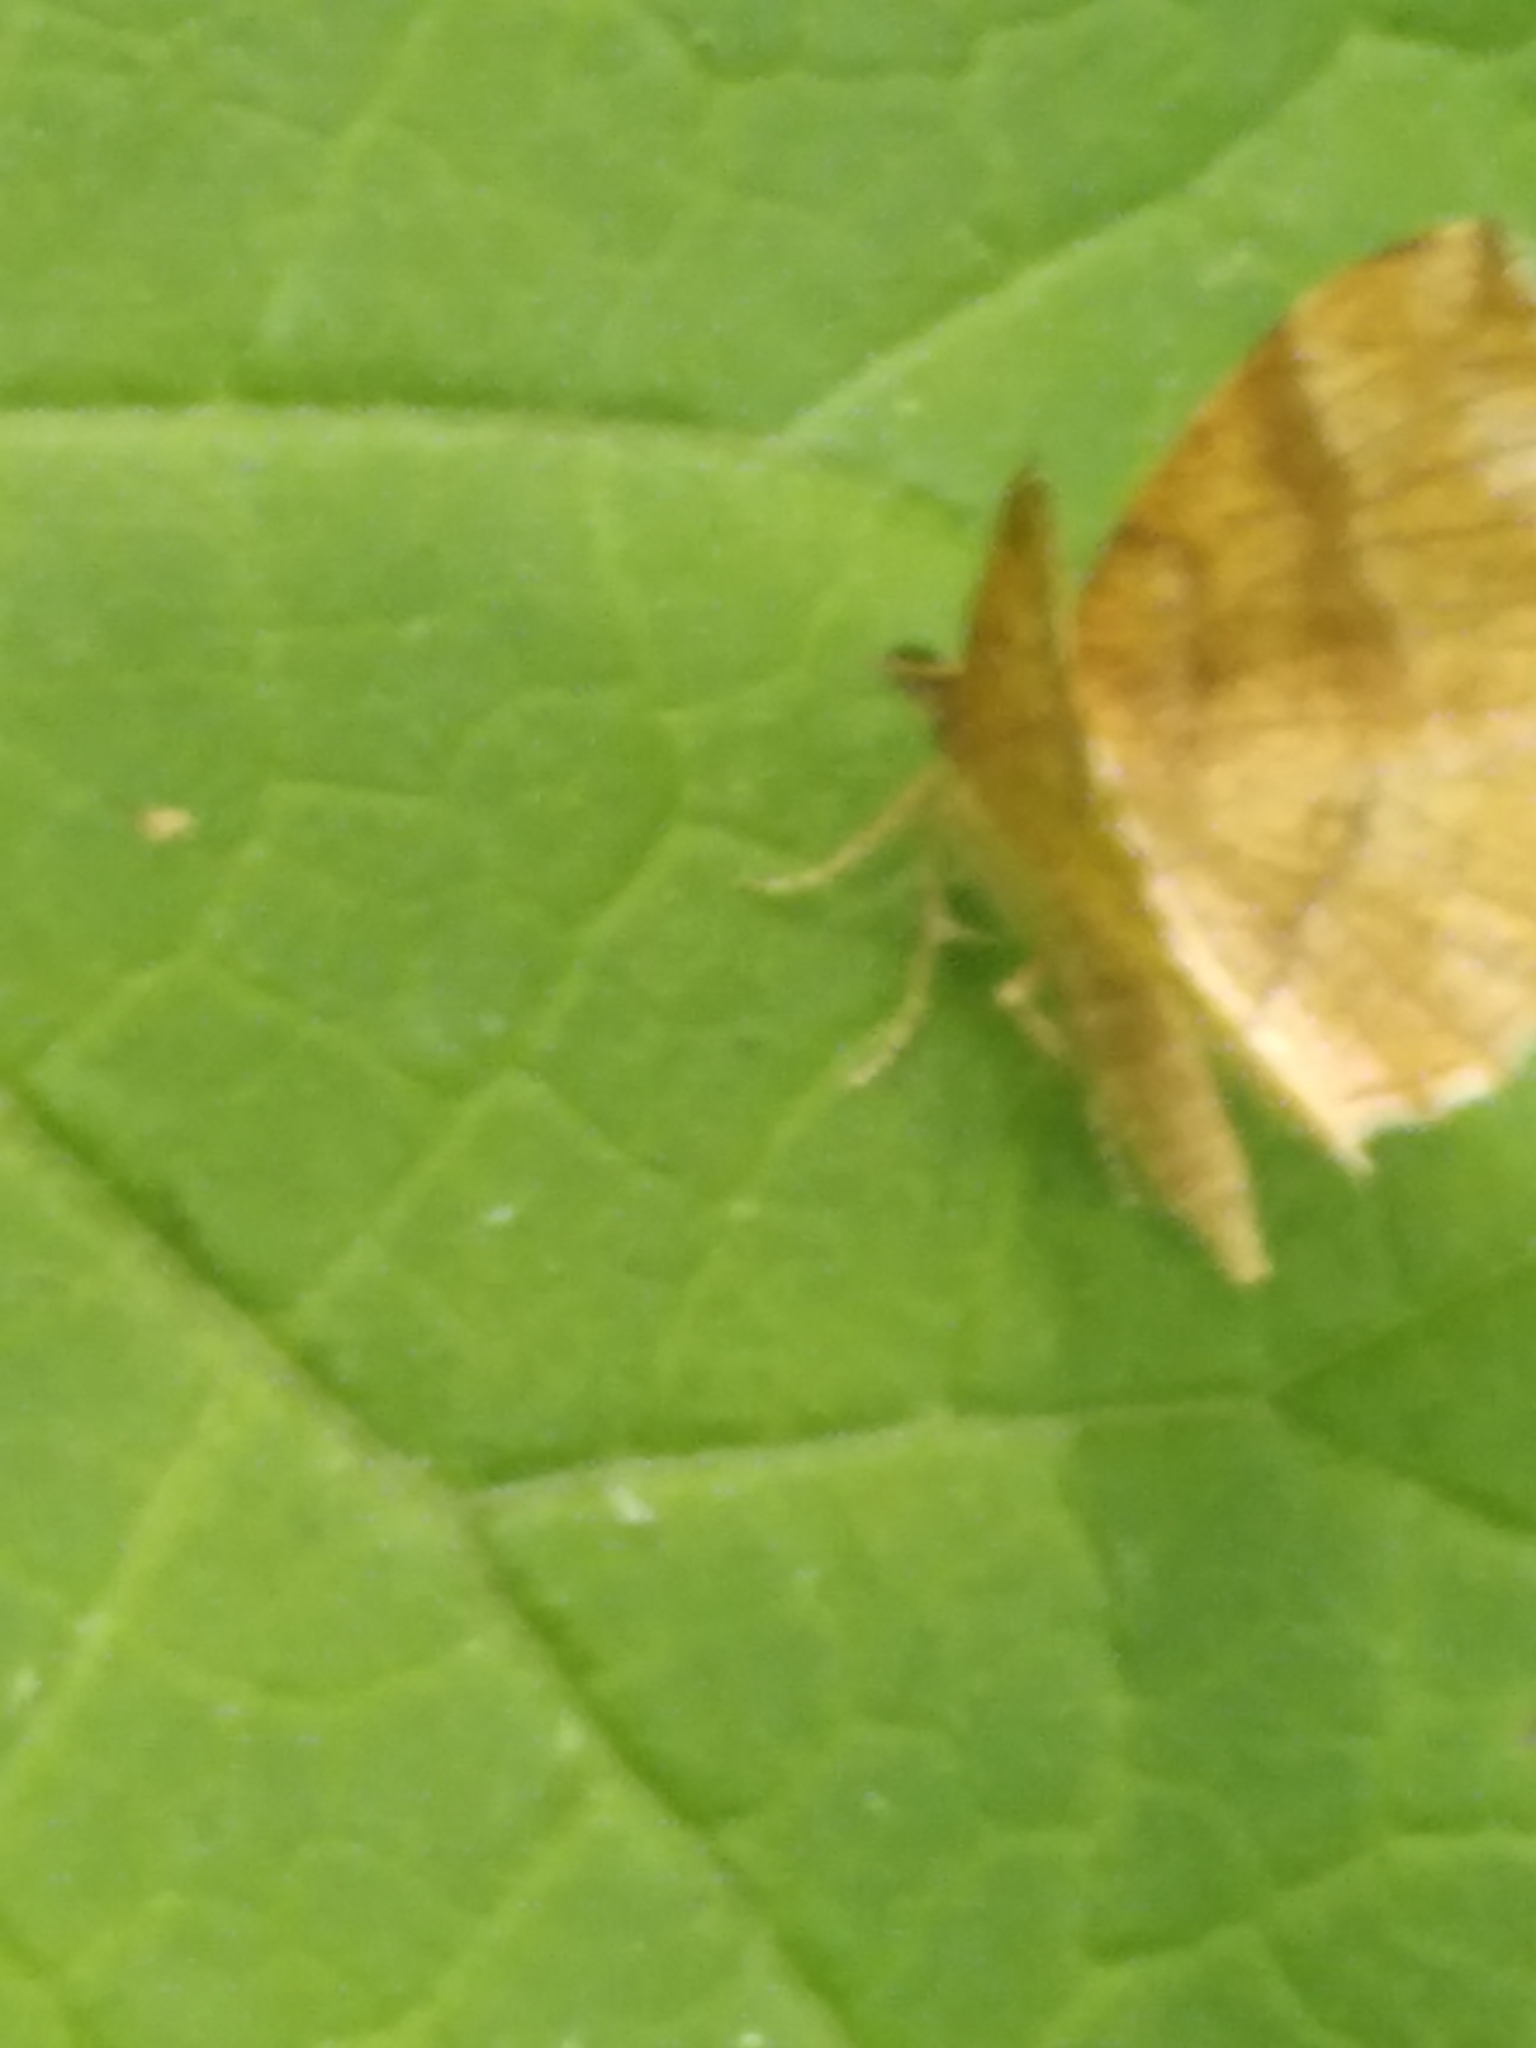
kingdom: Animalia
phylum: Arthropoda
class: Insecta
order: Lepidoptera
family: Geometridae
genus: Cepphis
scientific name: Cepphis advenaria
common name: Little thorn
